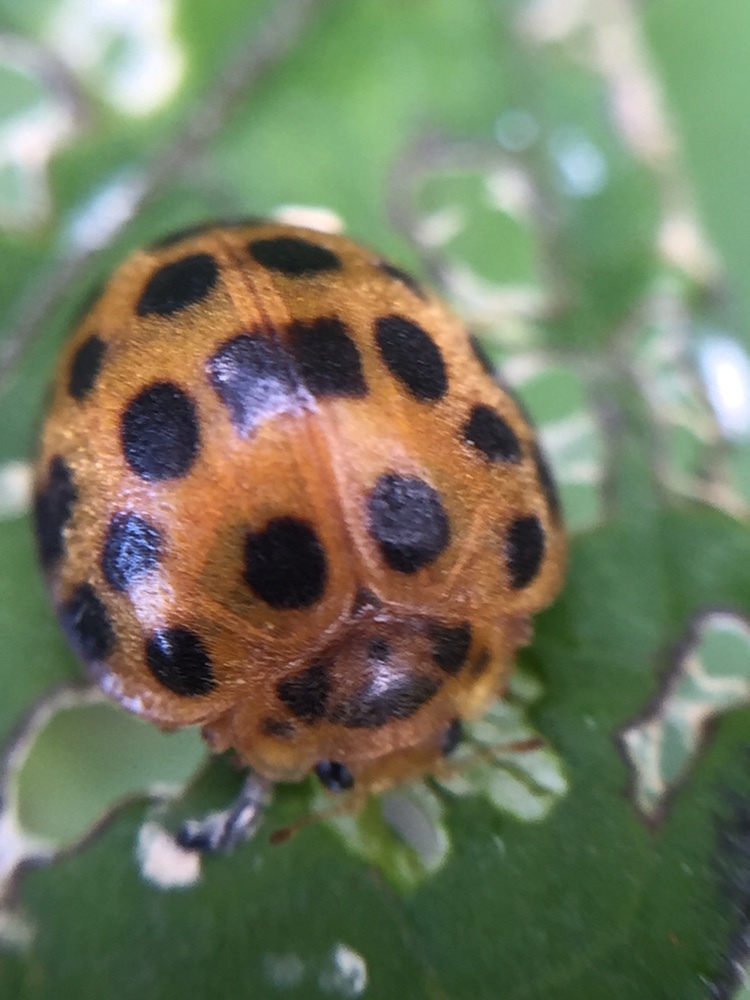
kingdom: Animalia
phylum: Arthropoda
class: Insecta
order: Coleoptera
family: Coccinellidae
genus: Henosepilachna
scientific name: Henosepilachna vigintioctopunctata
